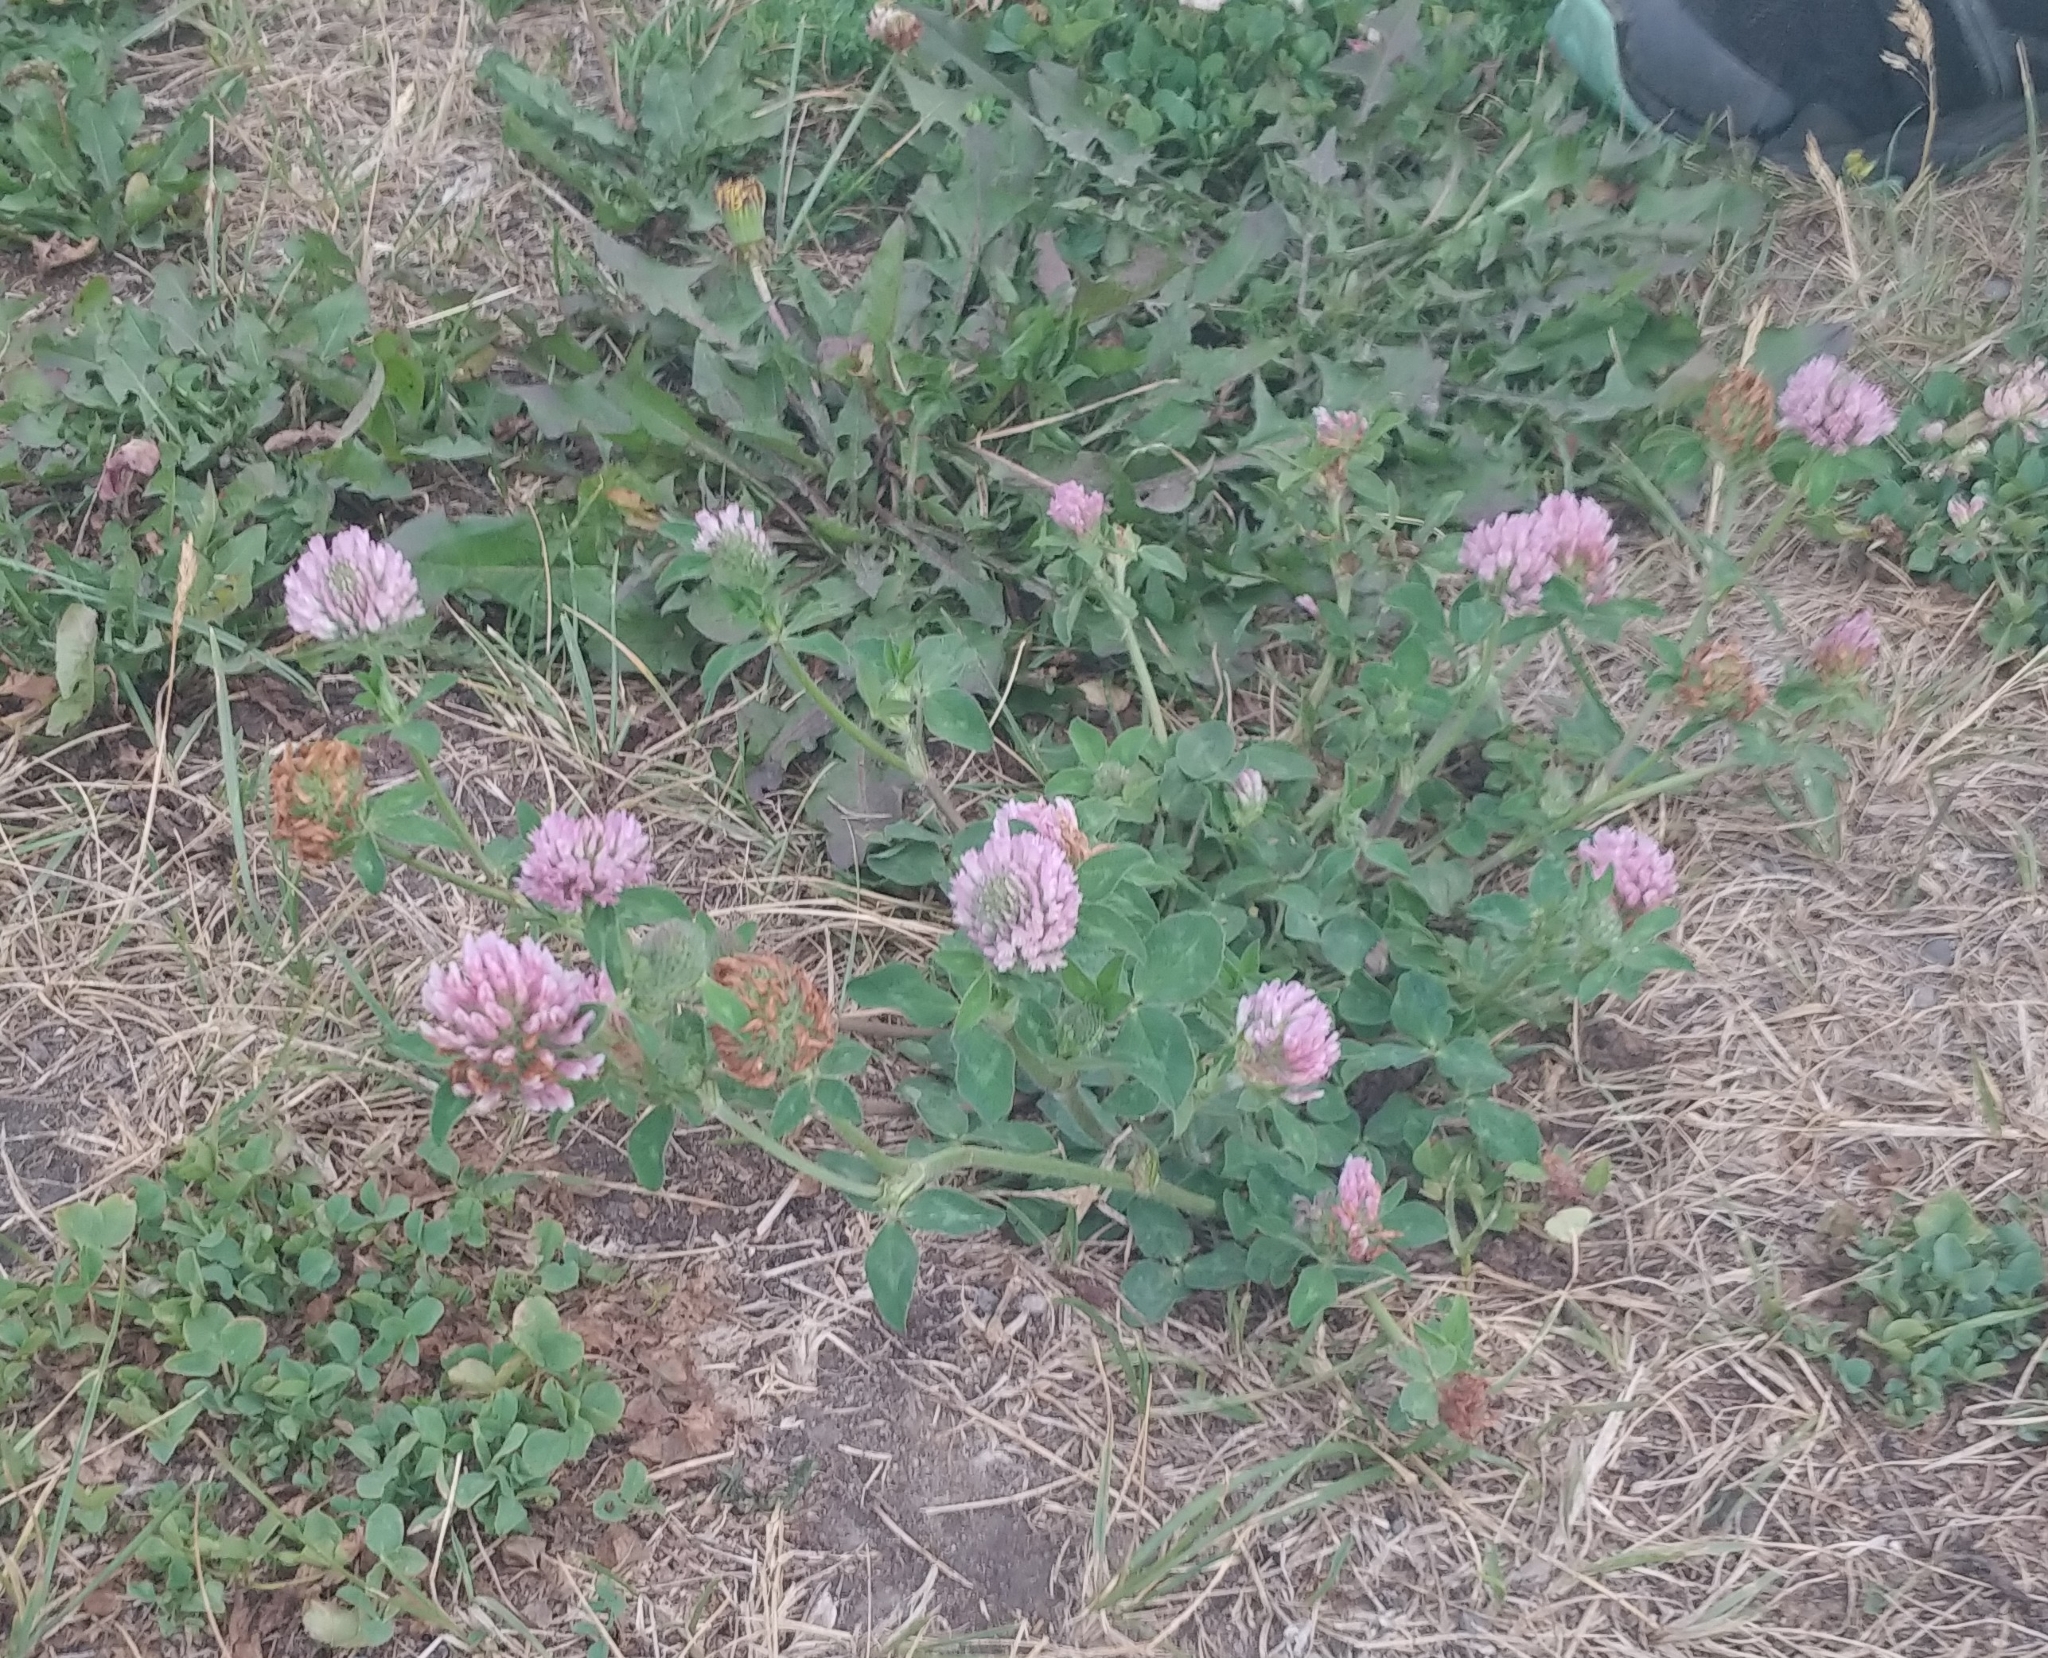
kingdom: Plantae
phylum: Tracheophyta
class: Magnoliopsida
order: Fabales
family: Fabaceae
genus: Trifolium
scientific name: Trifolium pratense
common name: Red clover
